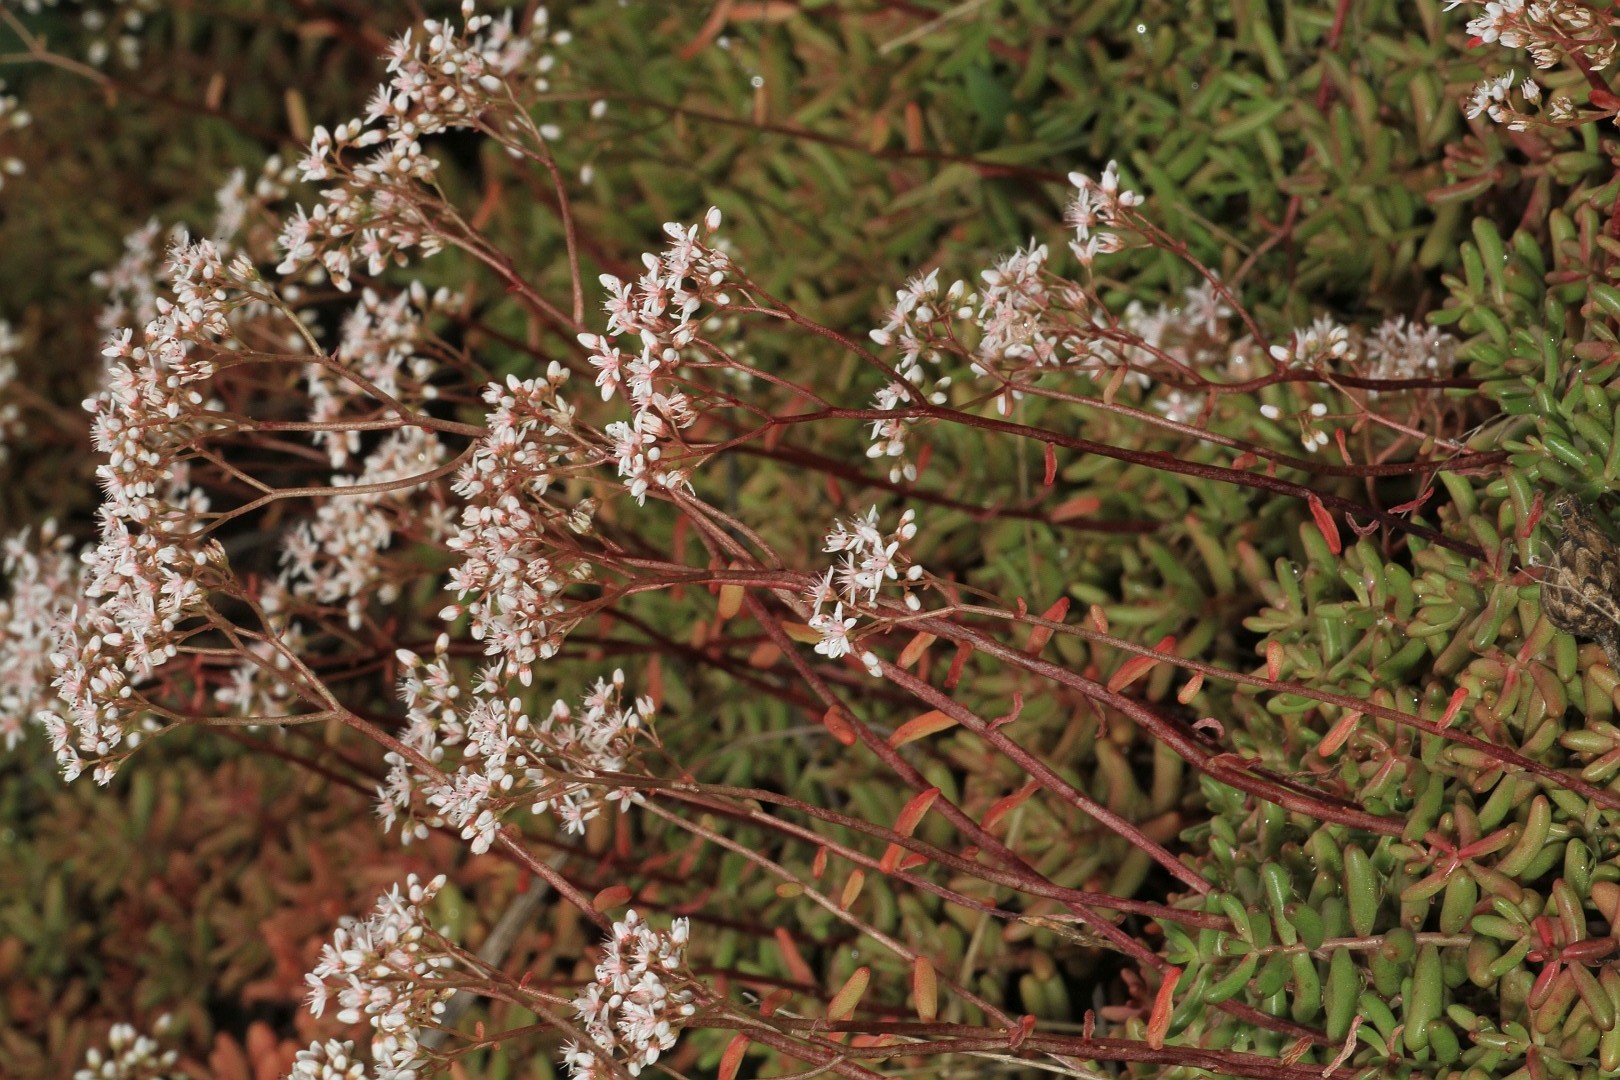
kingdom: Plantae
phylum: Tracheophyta
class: Magnoliopsida
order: Saxifragales
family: Crassulaceae
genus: Sedum
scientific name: Sedum album
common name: White stonecrop
